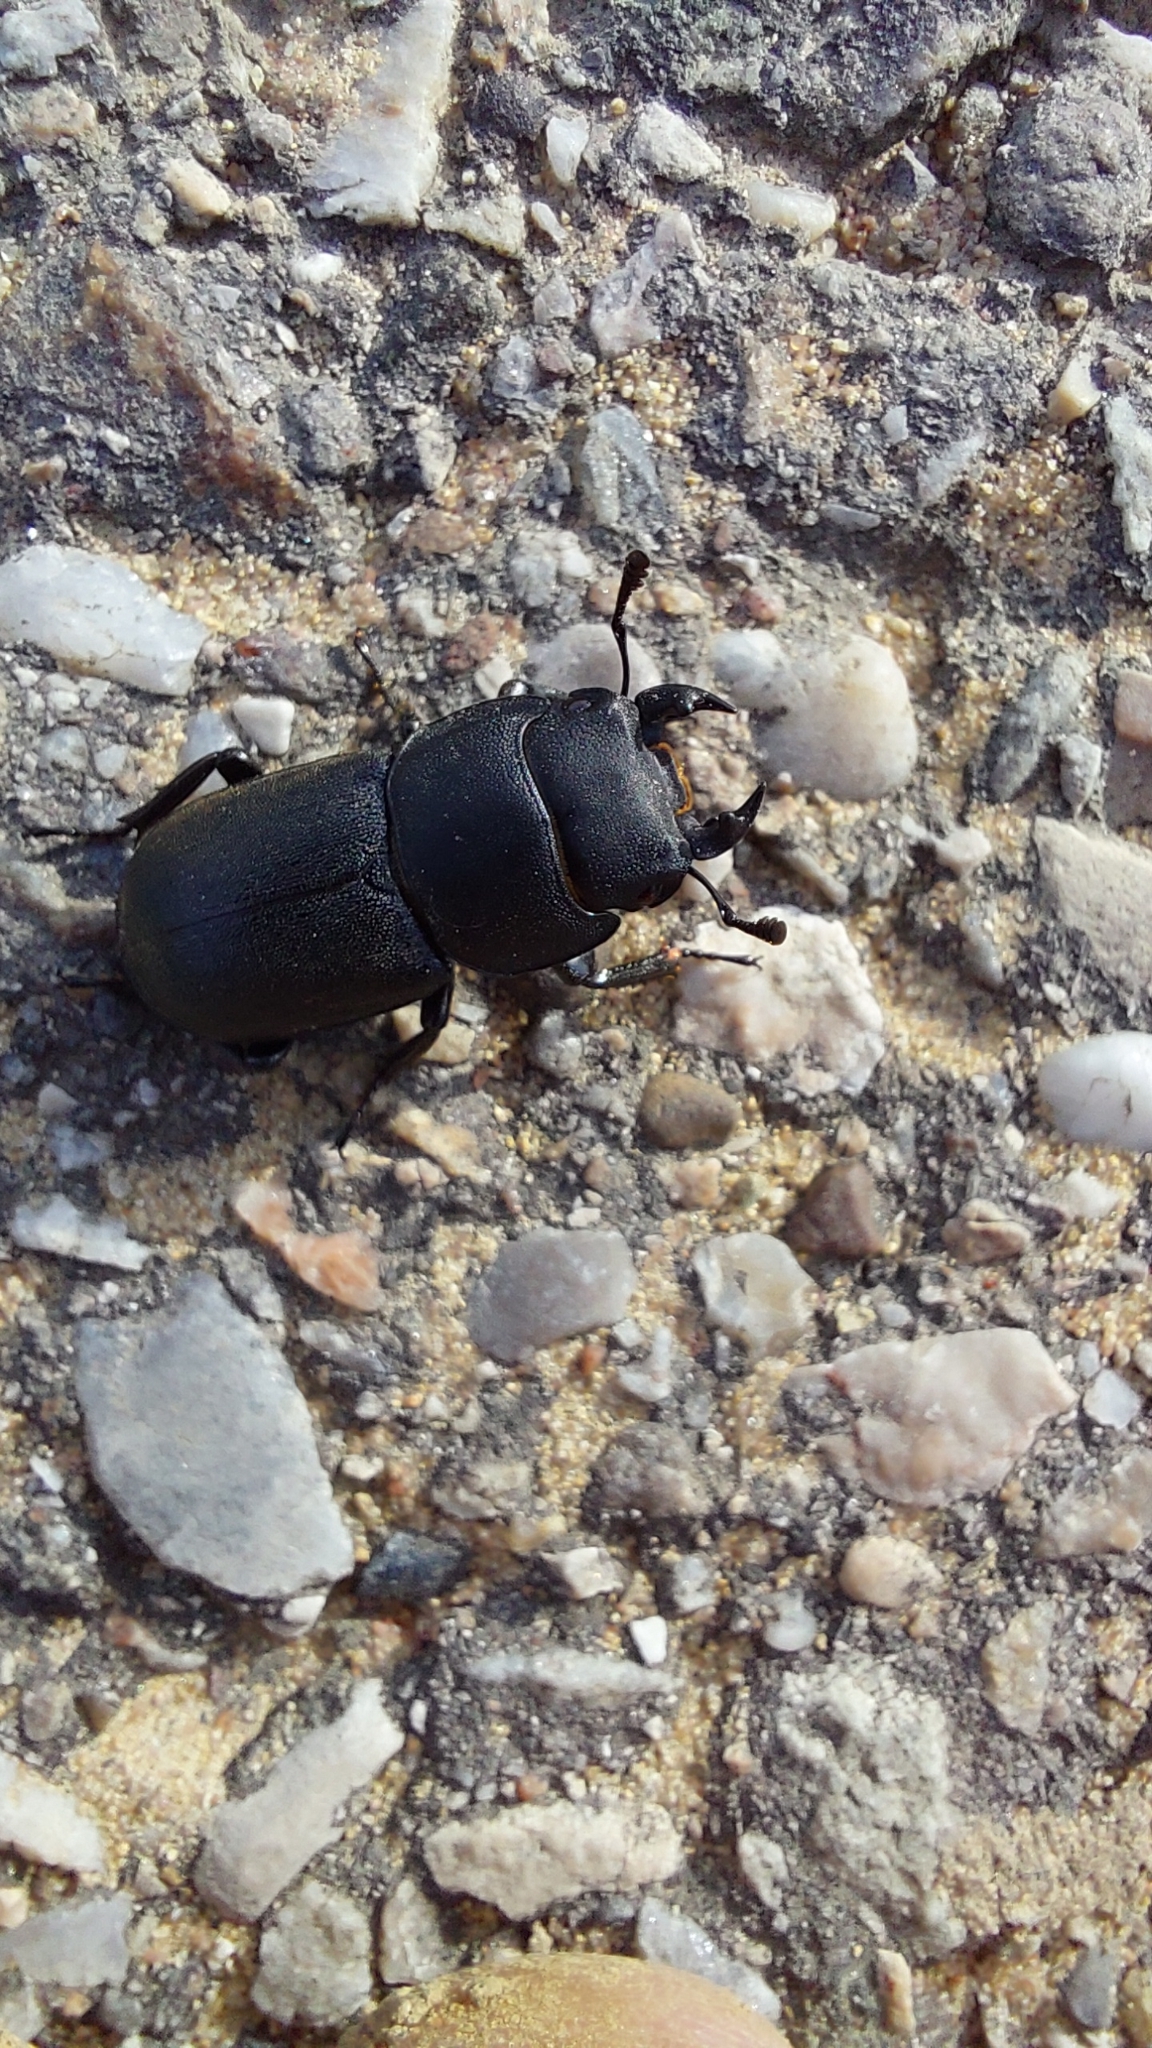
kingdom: Animalia
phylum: Arthropoda
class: Insecta
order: Coleoptera
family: Lucanidae
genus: Dorcus
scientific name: Dorcus parallelipipedus
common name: Lesser stag beetle
